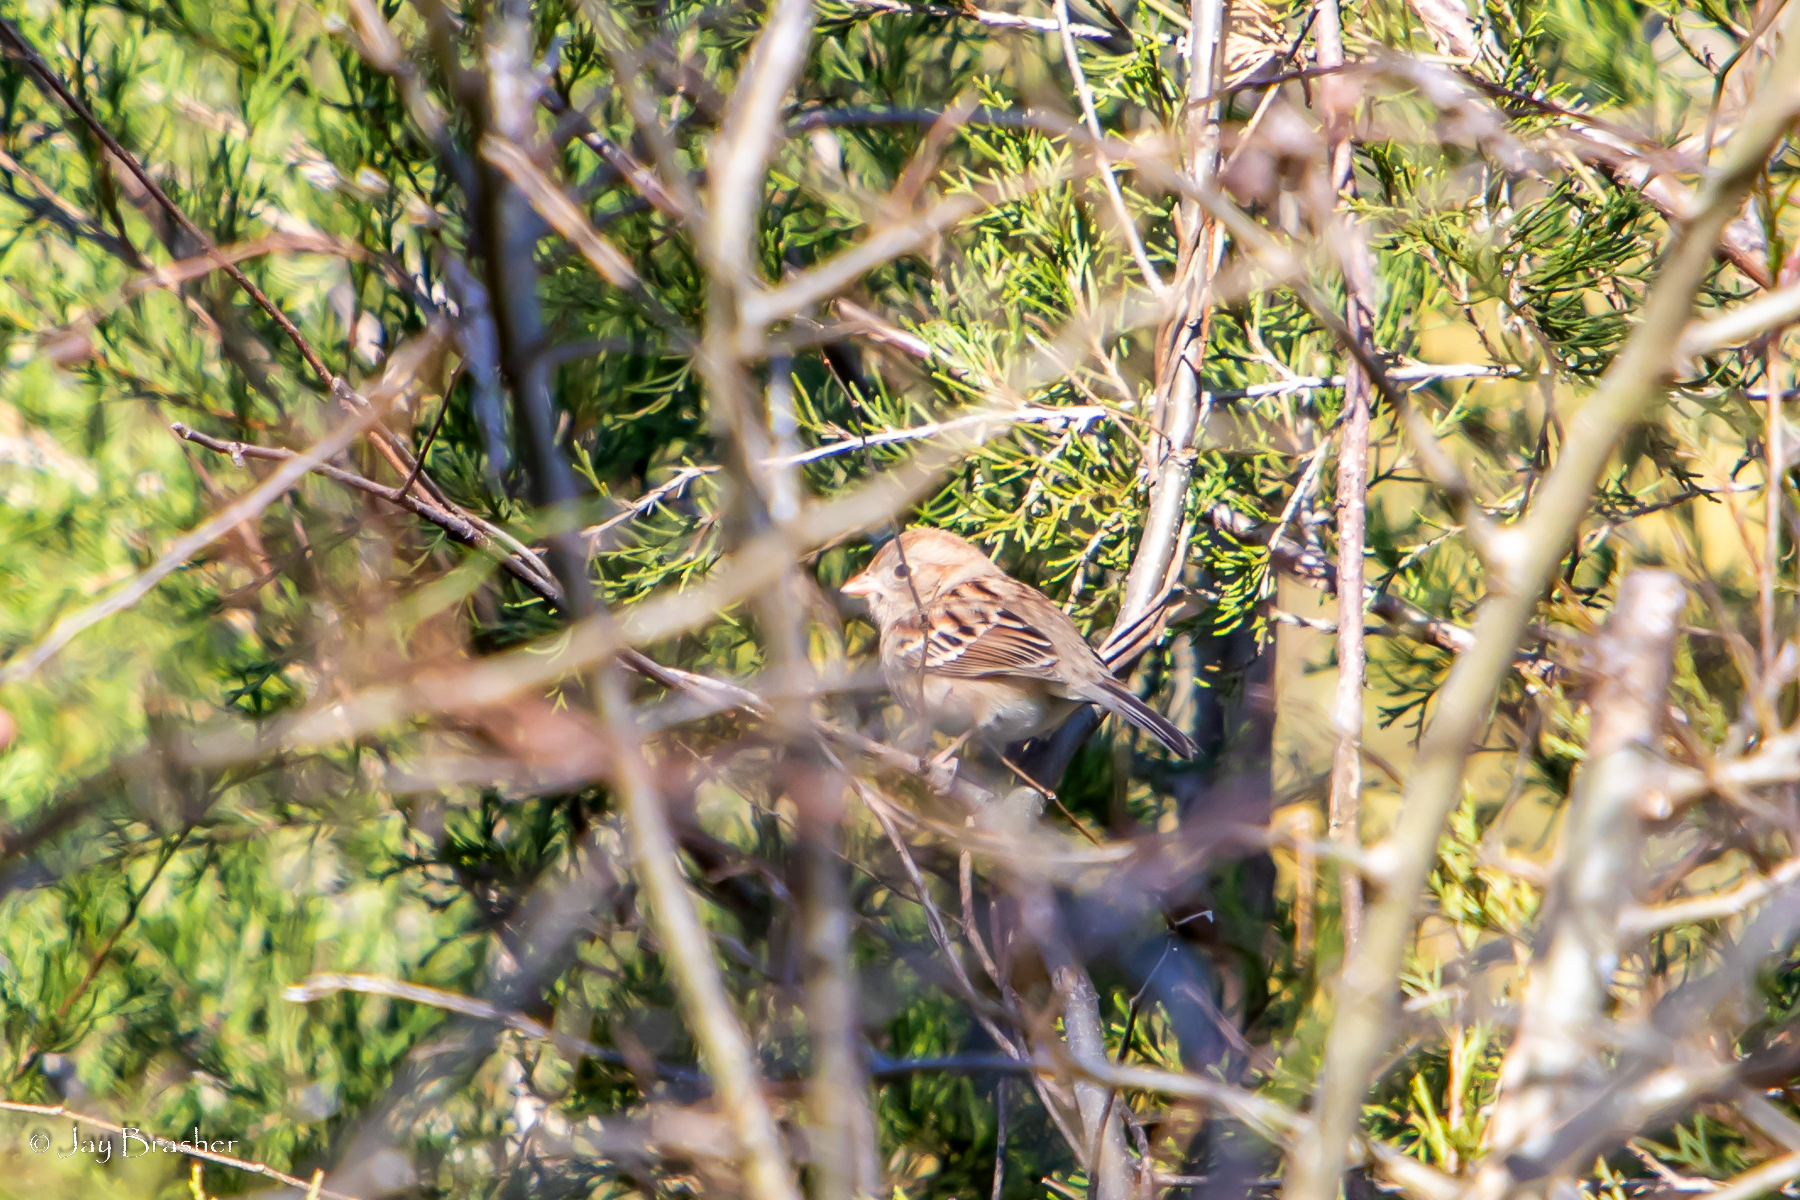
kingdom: Animalia
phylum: Chordata
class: Aves
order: Passeriformes
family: Passerellidae
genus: Spizella
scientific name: Spizella pusilla
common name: Field sparrow
